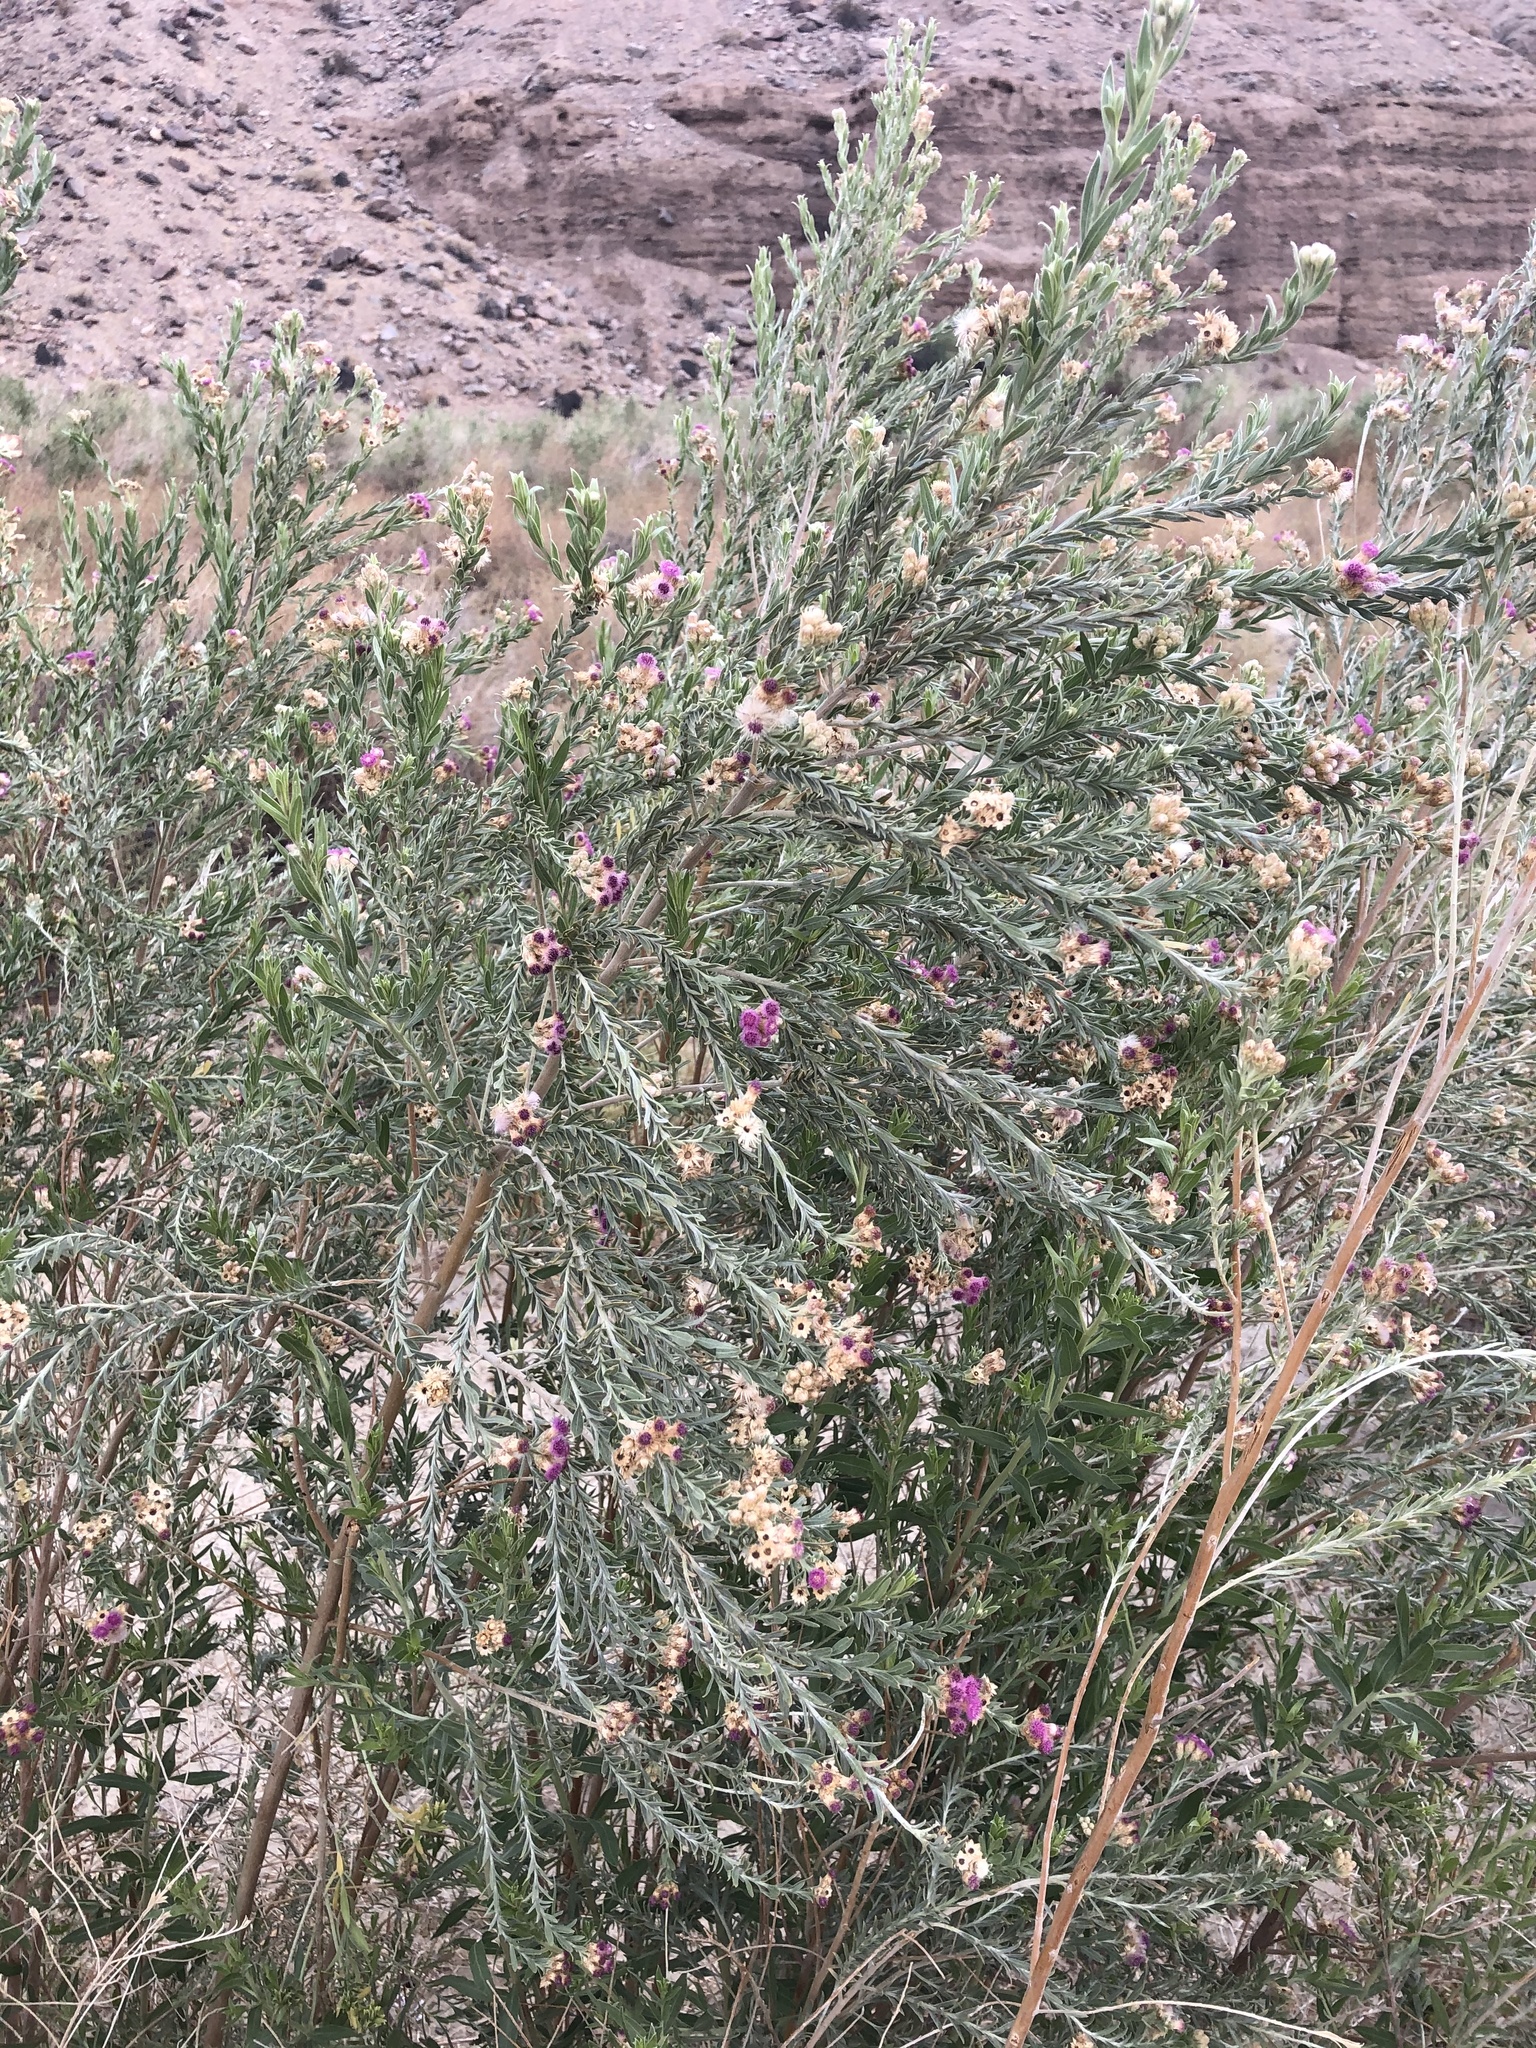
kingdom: Plantae
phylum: Tracheophyta
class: Magnoliopsida
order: Asterales
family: Asteraceae
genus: Pluchea
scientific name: Pluchea sericea
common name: Arrow-weed
